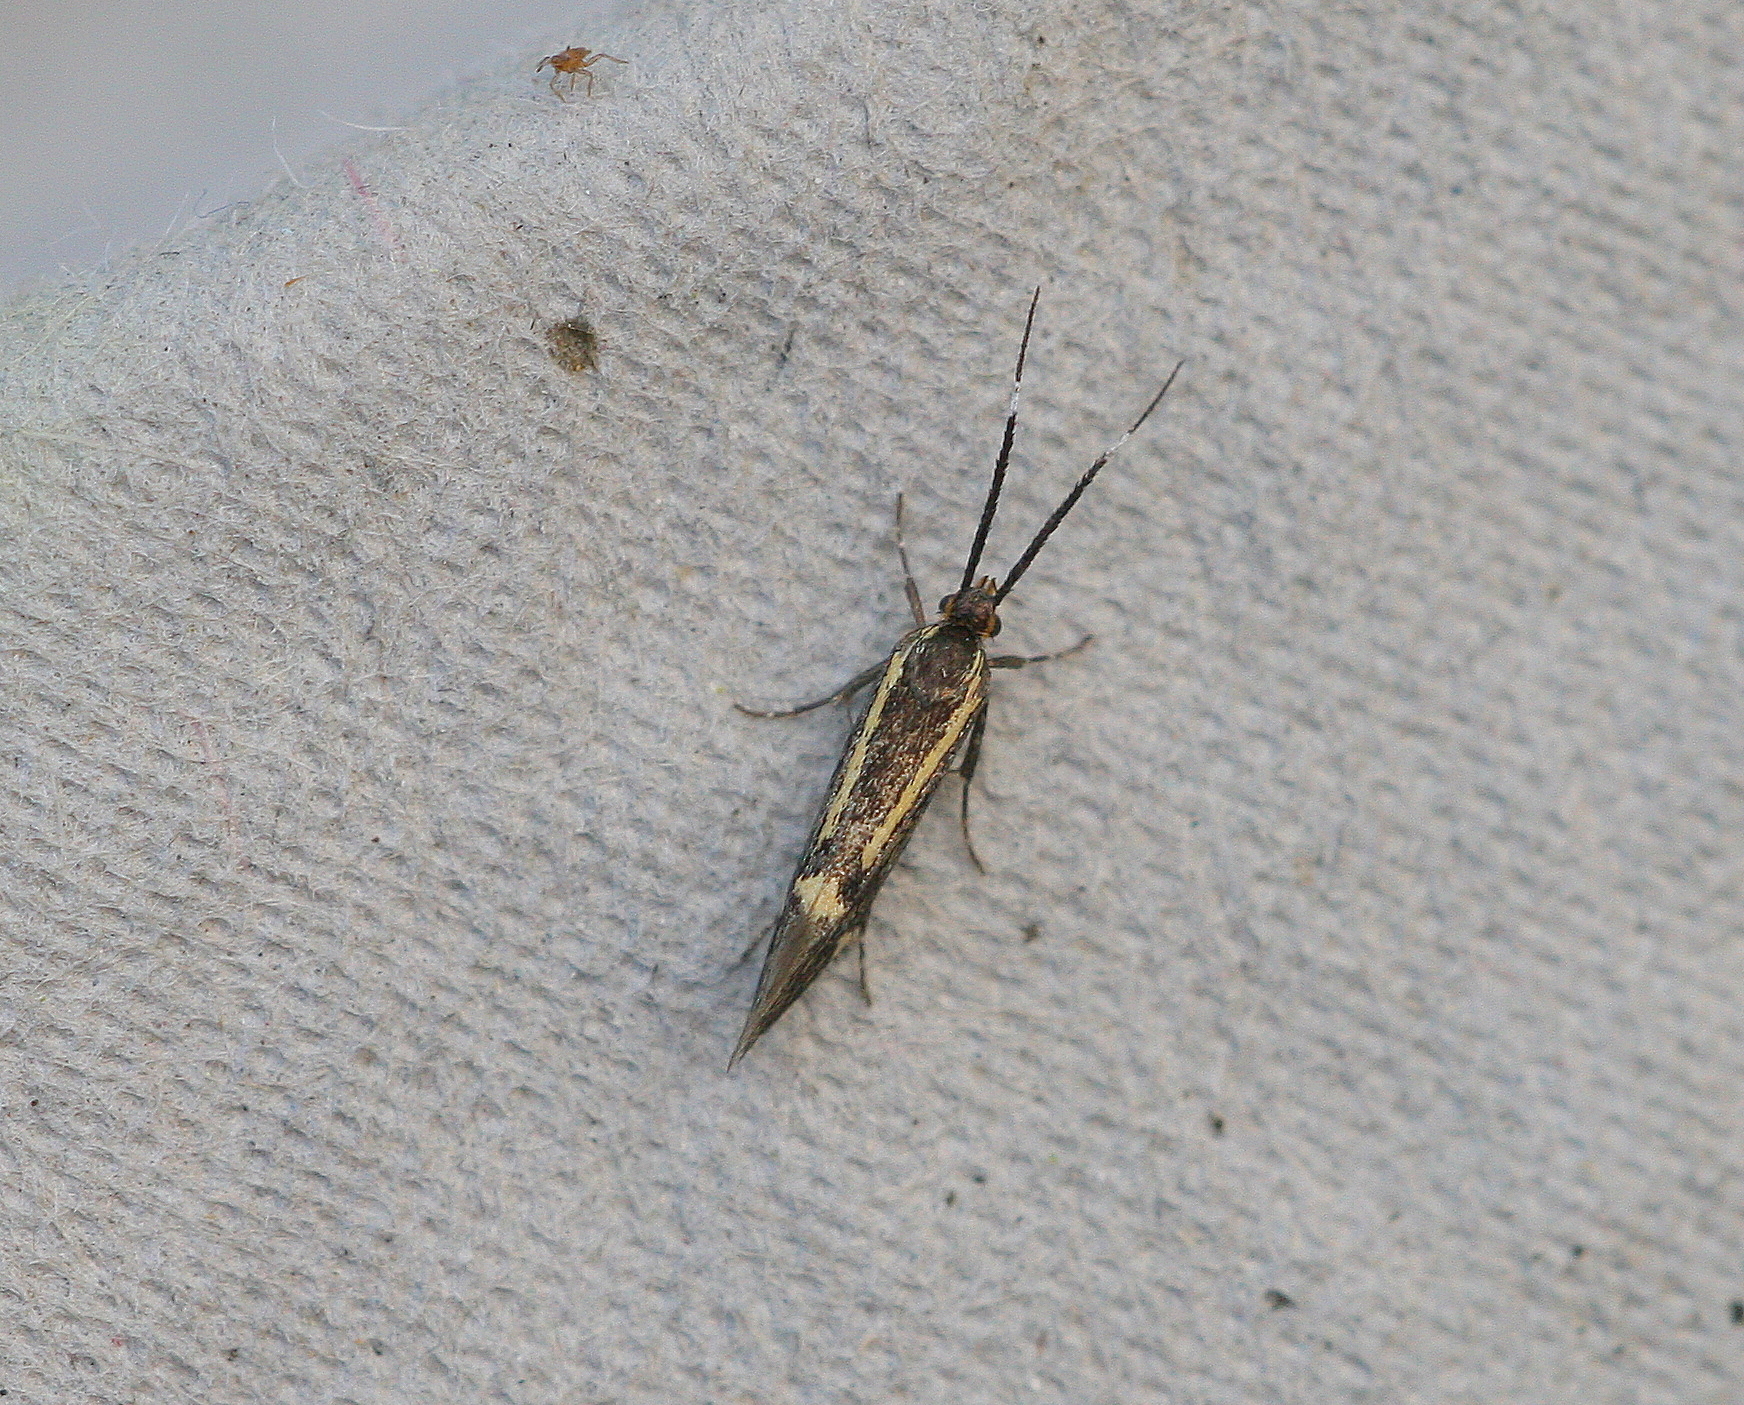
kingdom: Animalia
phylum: Arthropoda
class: Insecta
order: Lepidoptera
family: Oecophoridae
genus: Dafa
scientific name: Dafa Esperia sulphurella
